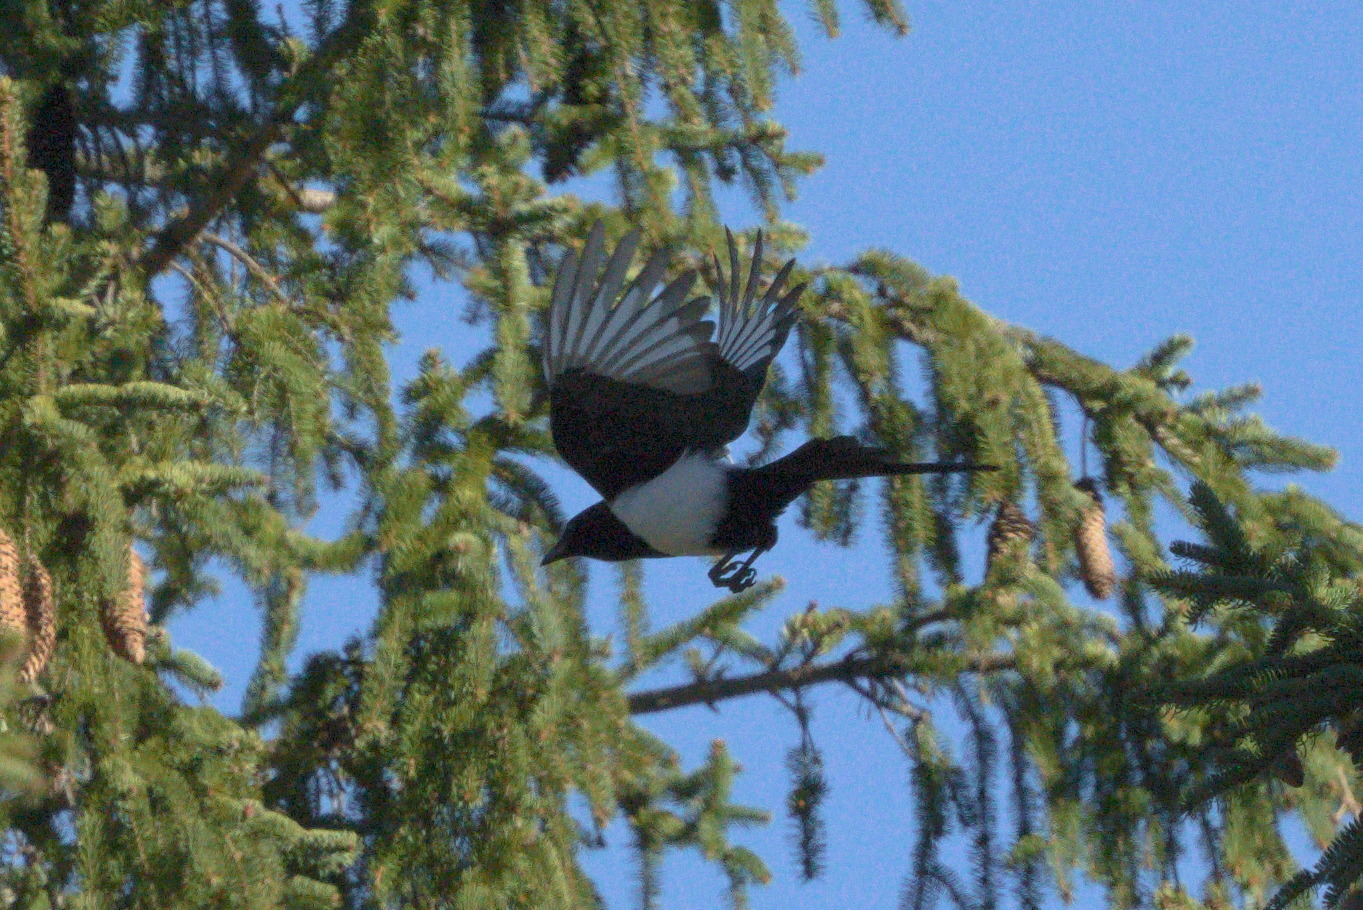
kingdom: Animalia
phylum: Chordata
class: Aves
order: Passeriformes
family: Corvidae
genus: Pica
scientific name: Pica pica
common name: Eurasian magpie
